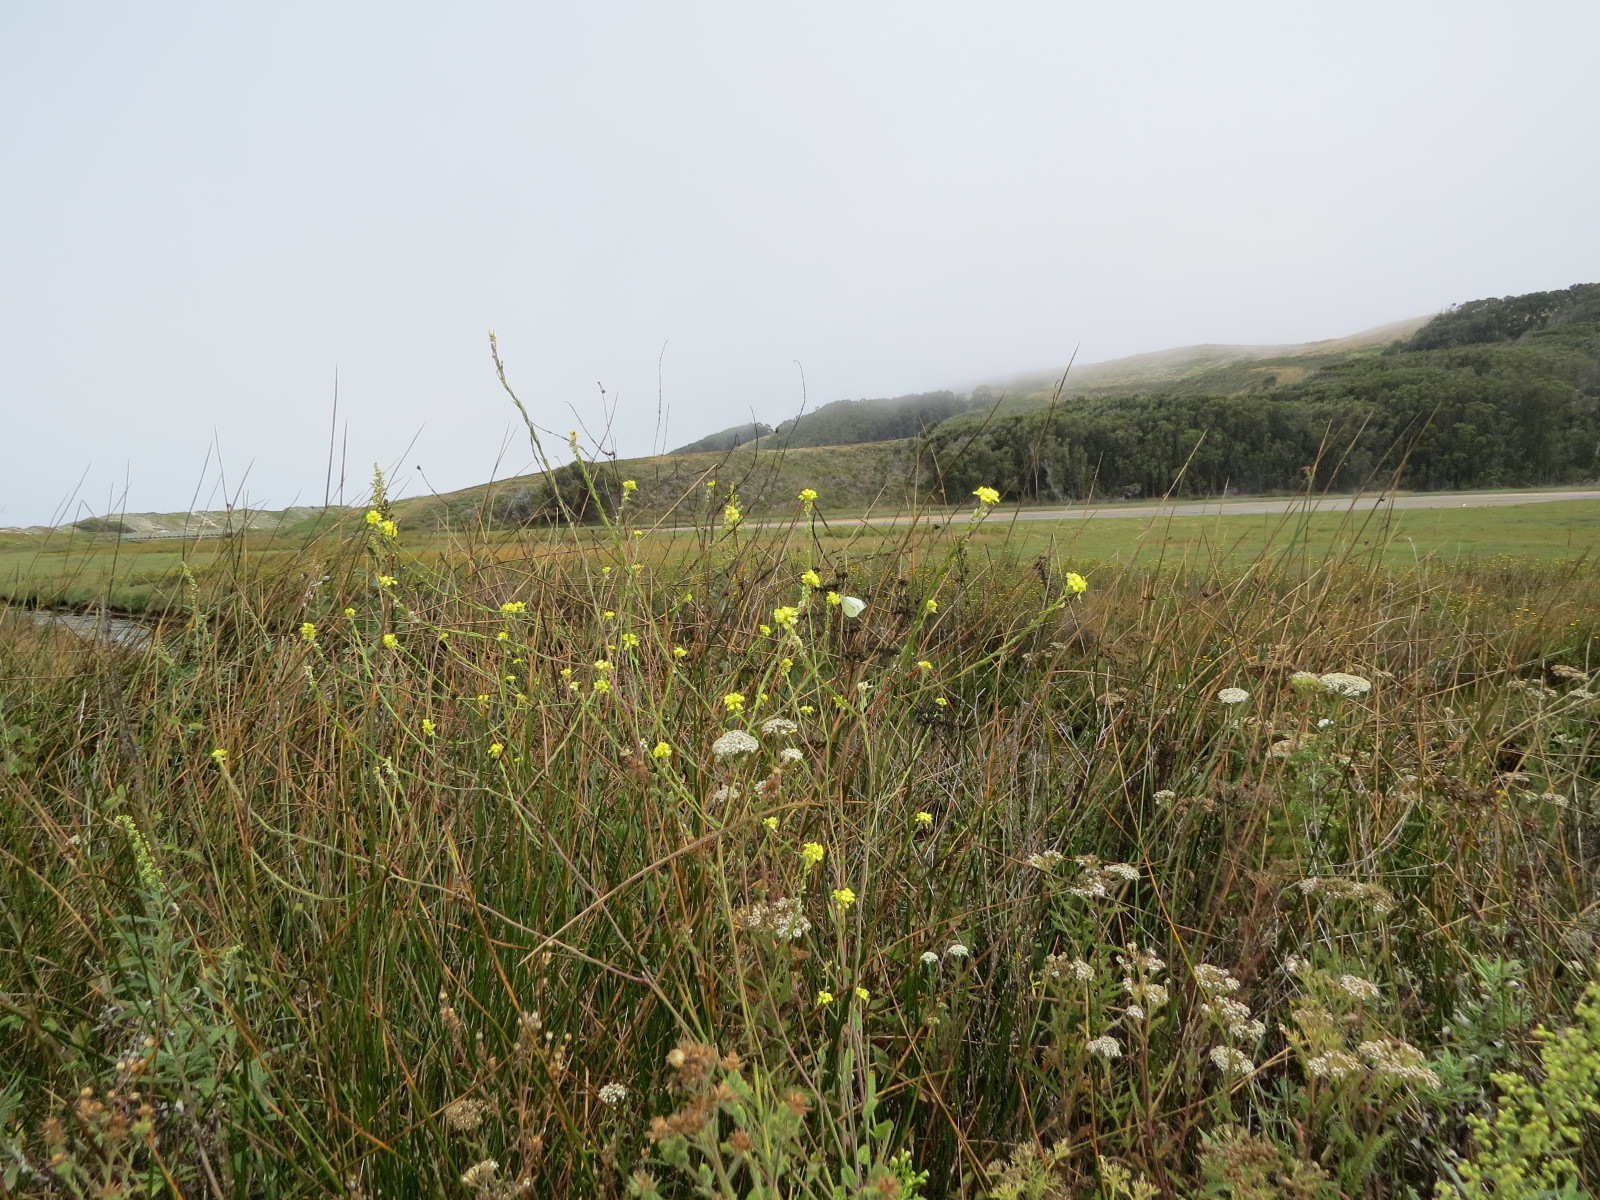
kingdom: Animalia
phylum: Arthropoda
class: Insecta
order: Lepidoptera
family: Pieridae
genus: Pieris
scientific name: Pieris rapae
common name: Small white
